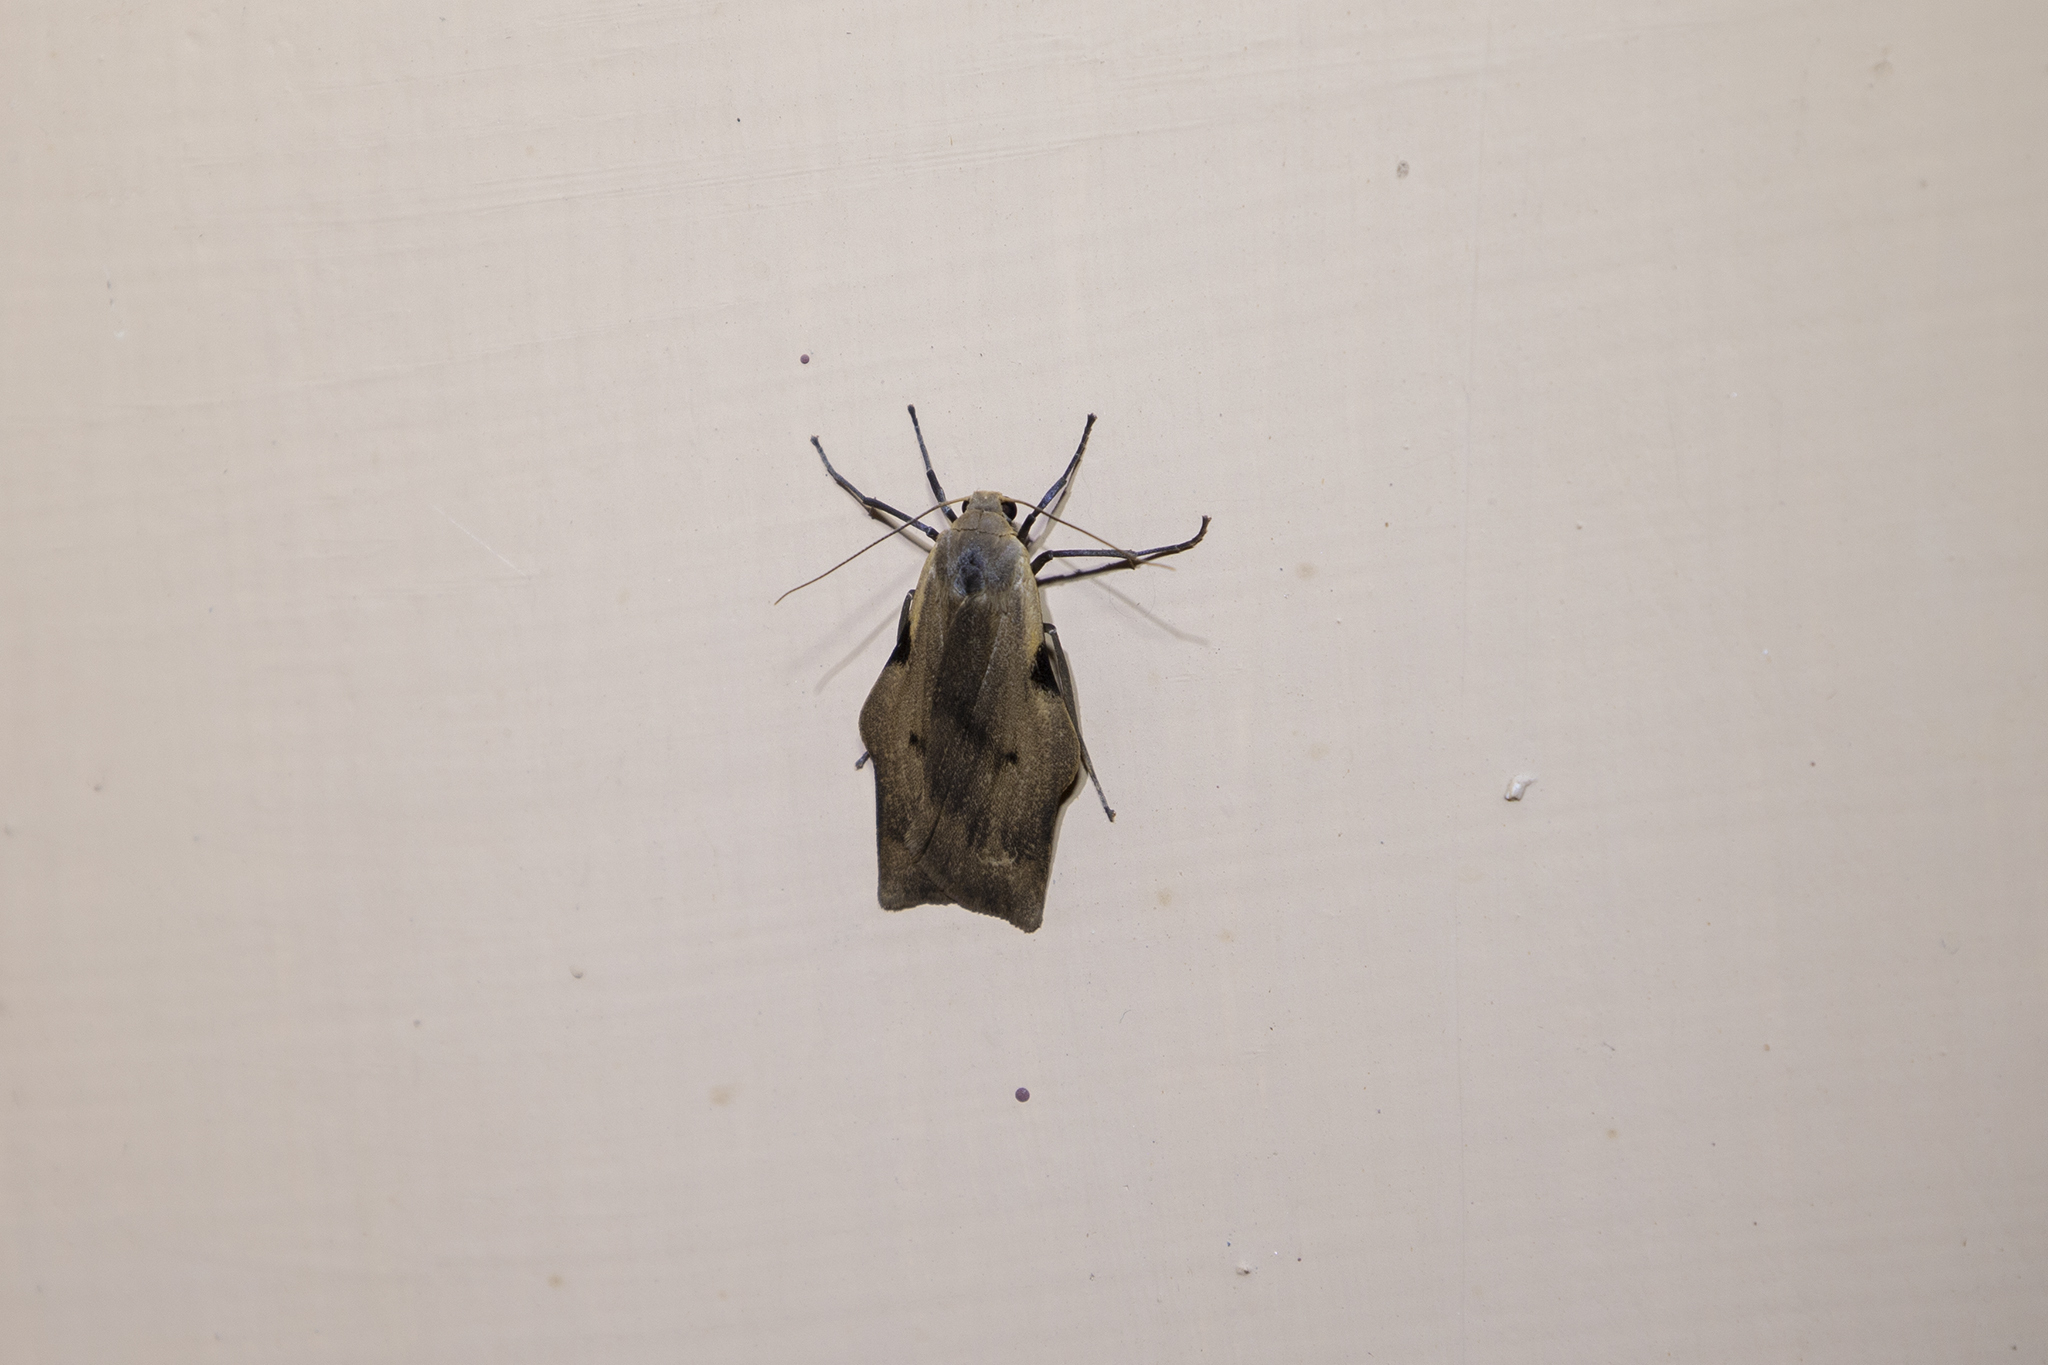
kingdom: Animalia
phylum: Arthropoda
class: Insecta
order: Lepidoptera
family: Erebidae
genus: Teulisna
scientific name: Teulisna obliquistria
